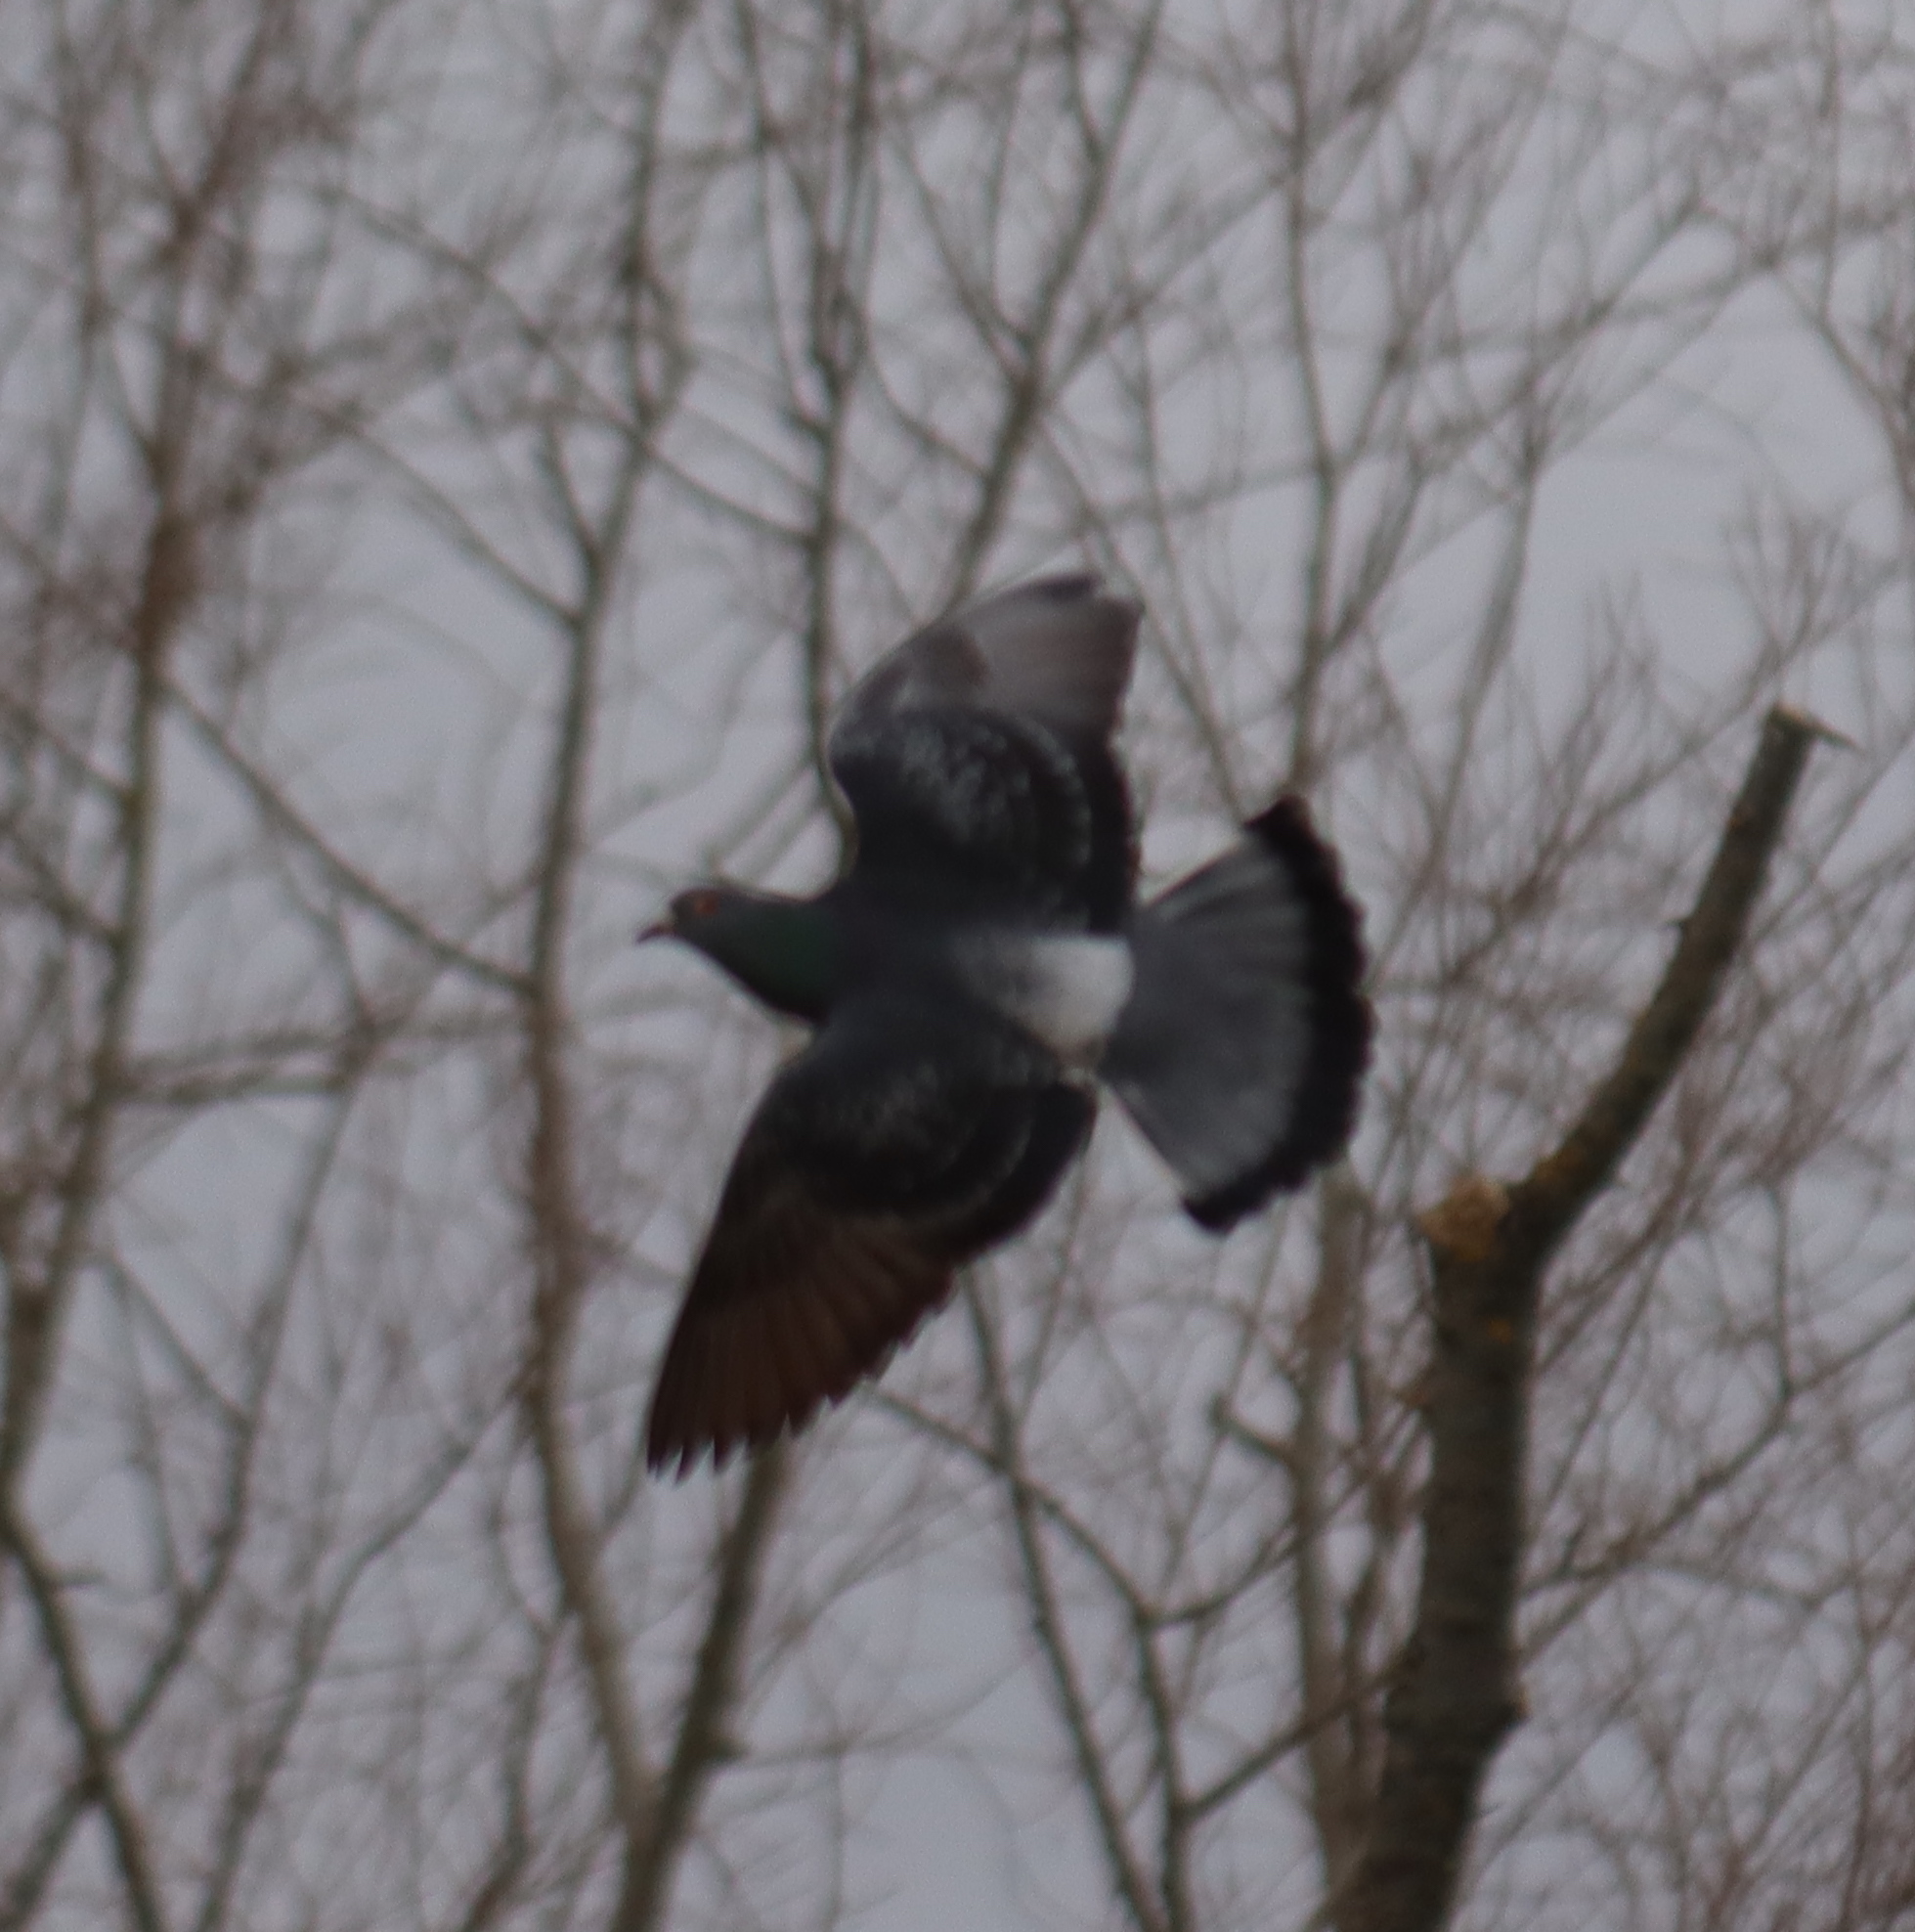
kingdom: Animalia
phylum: Chordata
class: Aves
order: Columbiformes
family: Columbidae
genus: Columba
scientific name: Columba livia
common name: Rock pigeon
